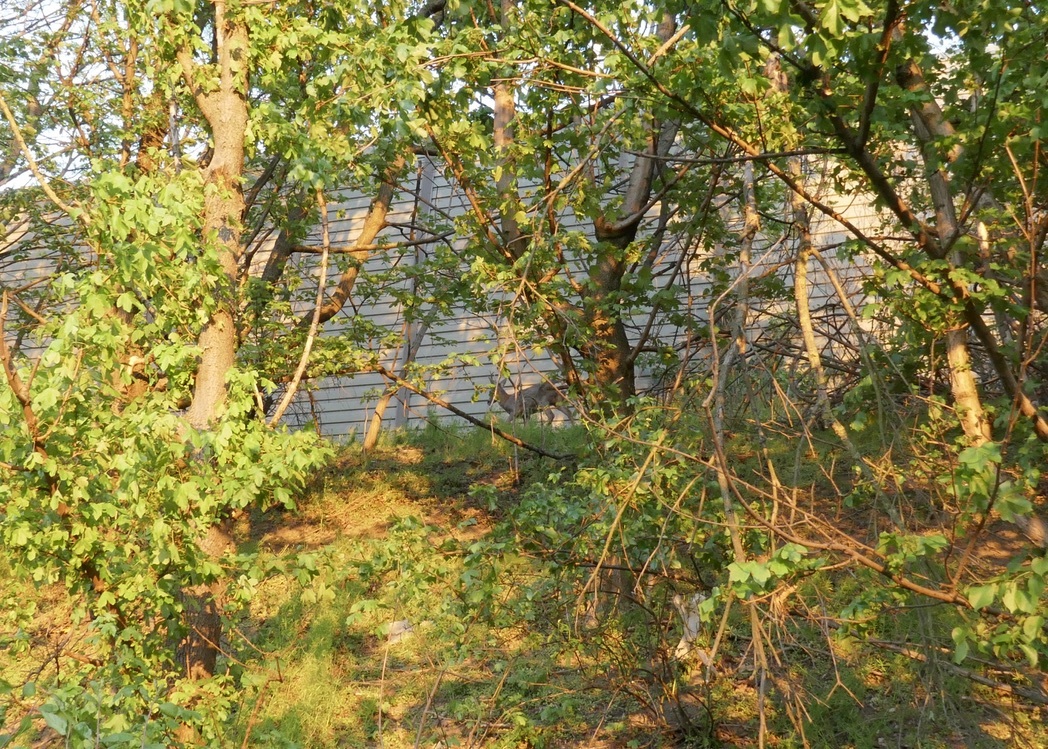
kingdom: Animalia
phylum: Chordata
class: Mammalia
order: Artiodactyla
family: Cervidae
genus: Capreolus
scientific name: Capreolus capreolus
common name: Western roe deer
